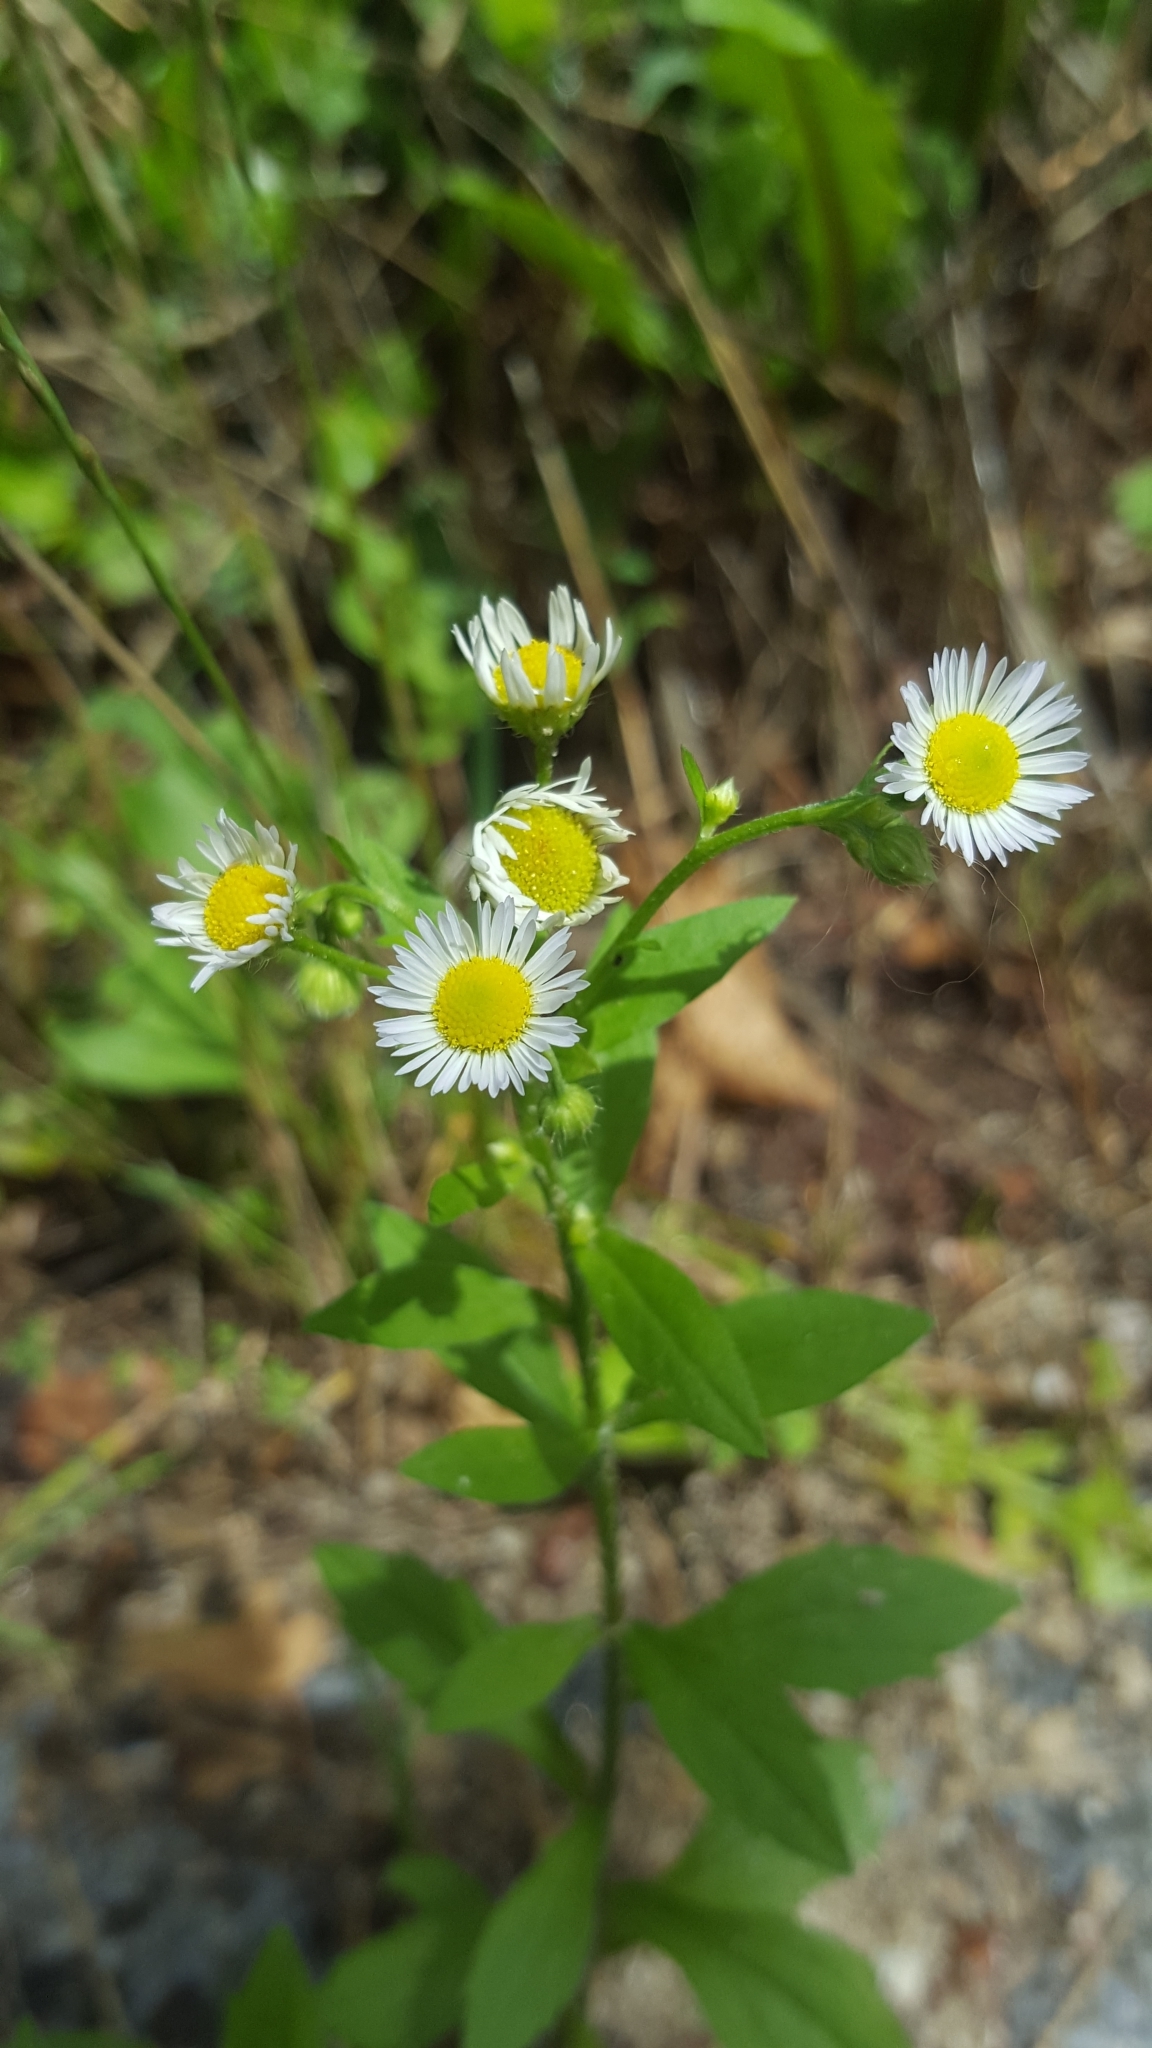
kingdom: Plantae
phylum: Tracheophyta
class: Magnoliopsida
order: Asterales
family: Asteraceae
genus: Erigeron
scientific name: Erigeron annuus
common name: Tall fleabane
